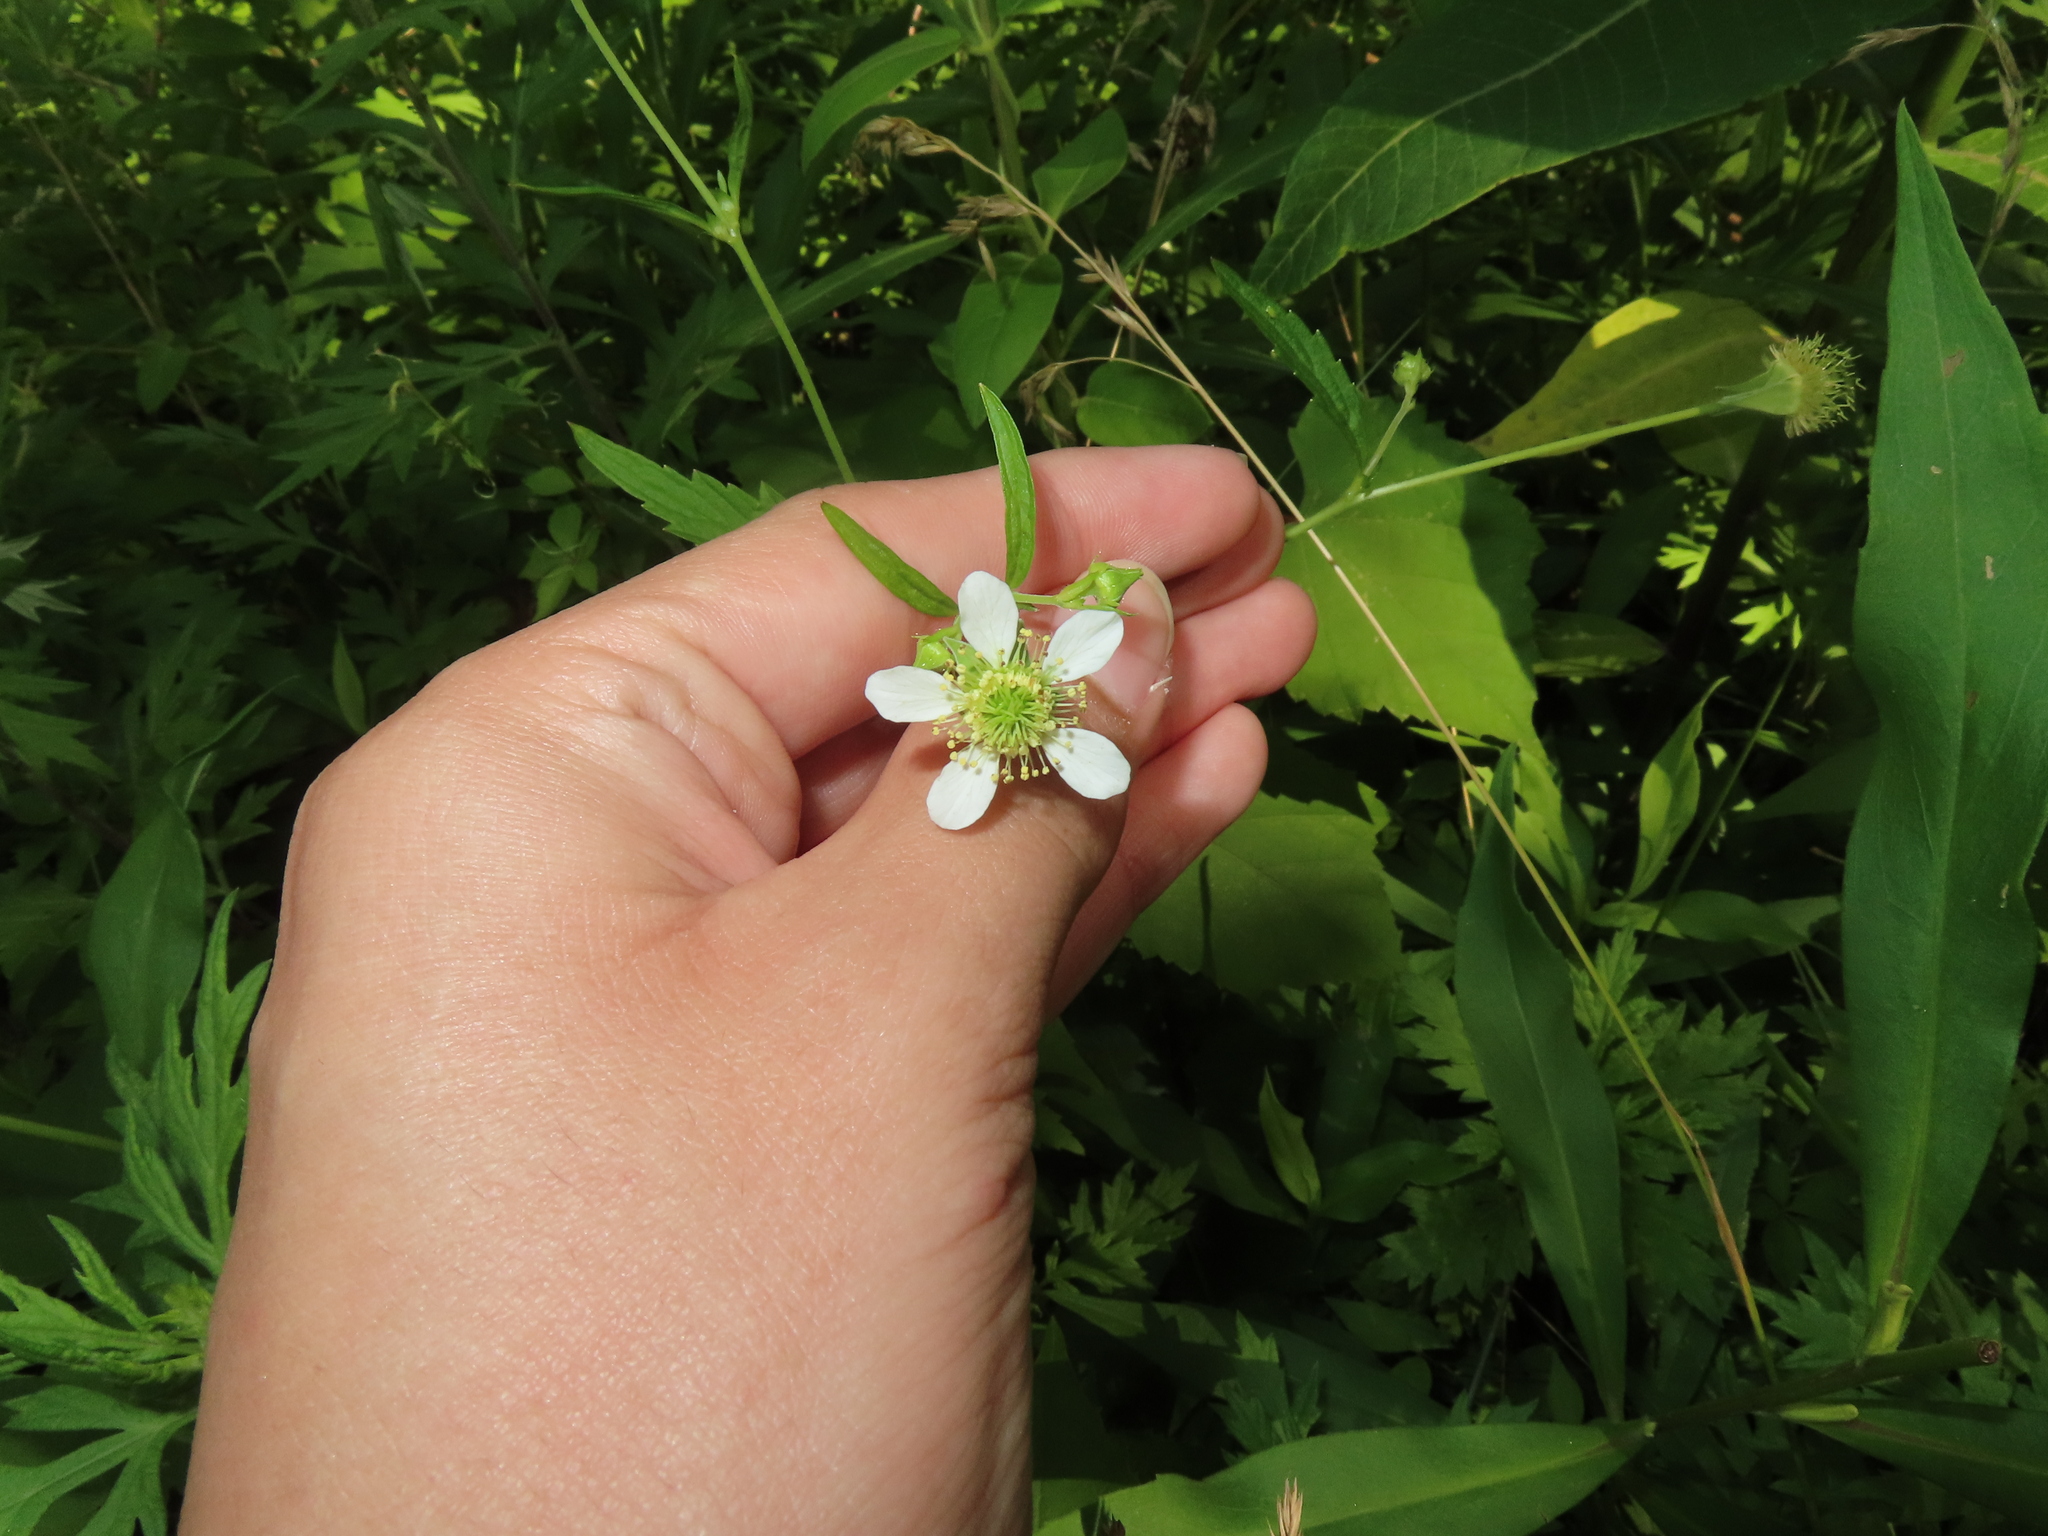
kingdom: Plantae
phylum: Tracheophyta
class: Magnoliopsida
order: Rosales
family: Rosaceae
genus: Geum
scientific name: Geum canadense
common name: White avens
